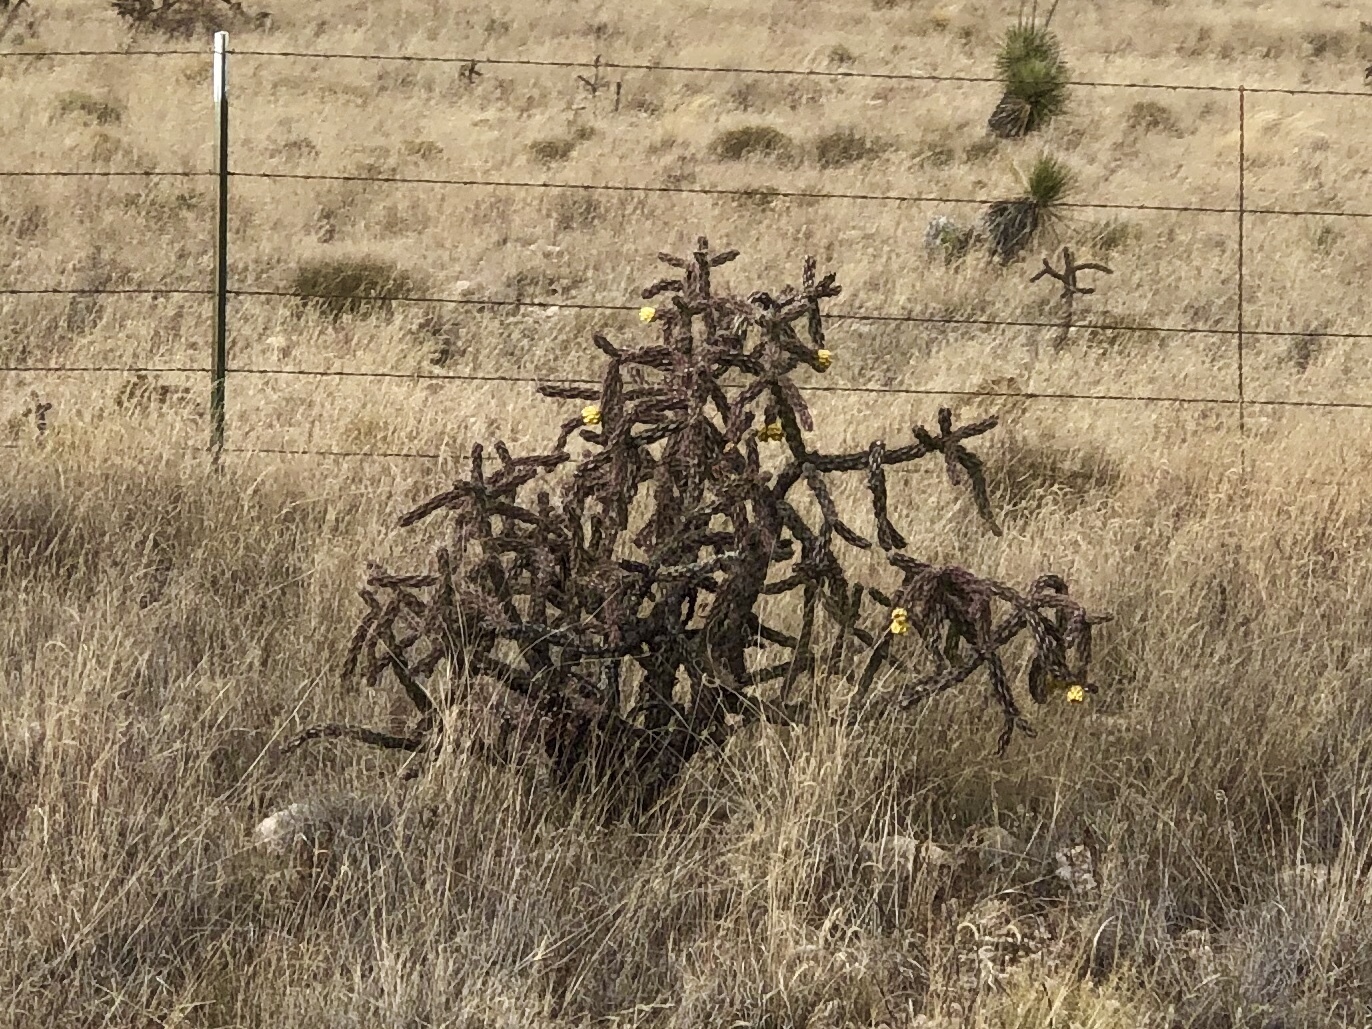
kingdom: Plantae
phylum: Tracheophyta
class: Magnoliopsida
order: Caryophyllales
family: Cactaceae
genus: Cylindropuntia
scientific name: Cylindropuntia imbricata
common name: Candelabrum cactus
